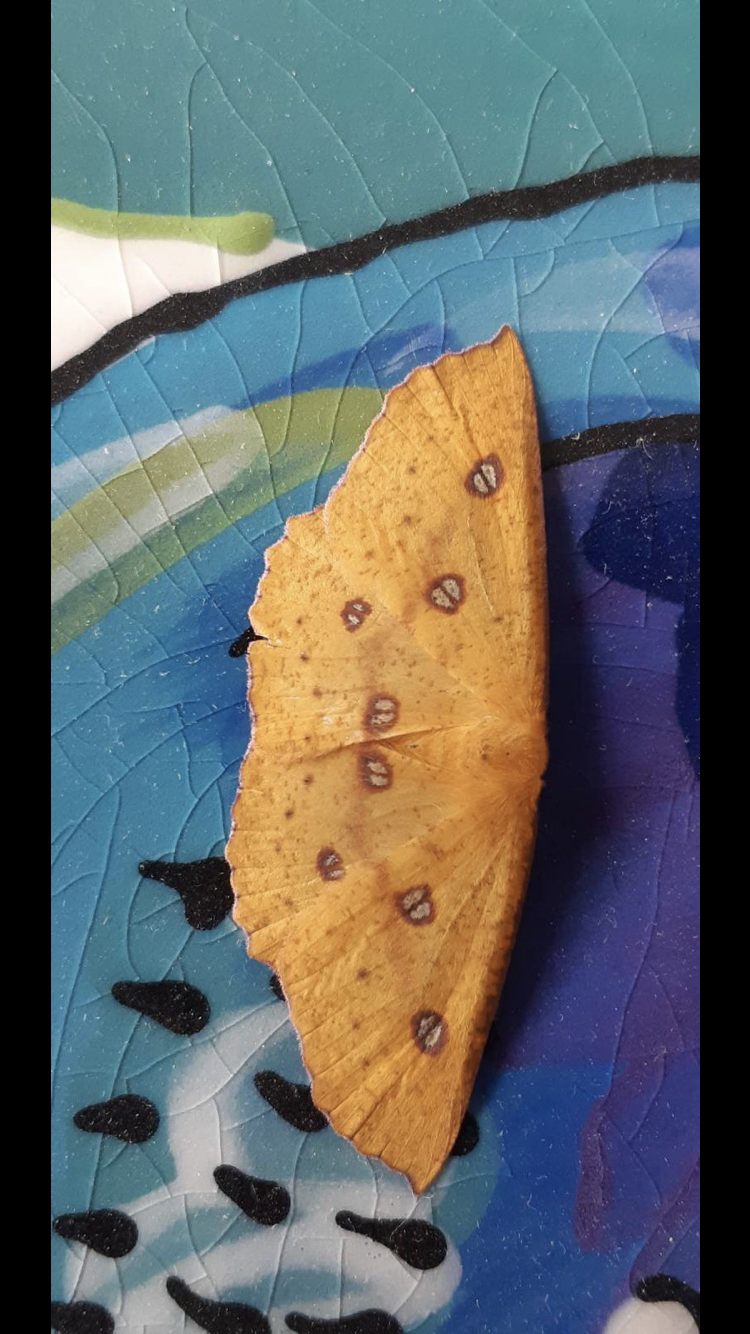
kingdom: Animalia
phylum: Arthropoda
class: Insecta
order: Lepidoptera
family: Geometridae
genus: Xyridacma
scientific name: Xyridacma alectoraria
